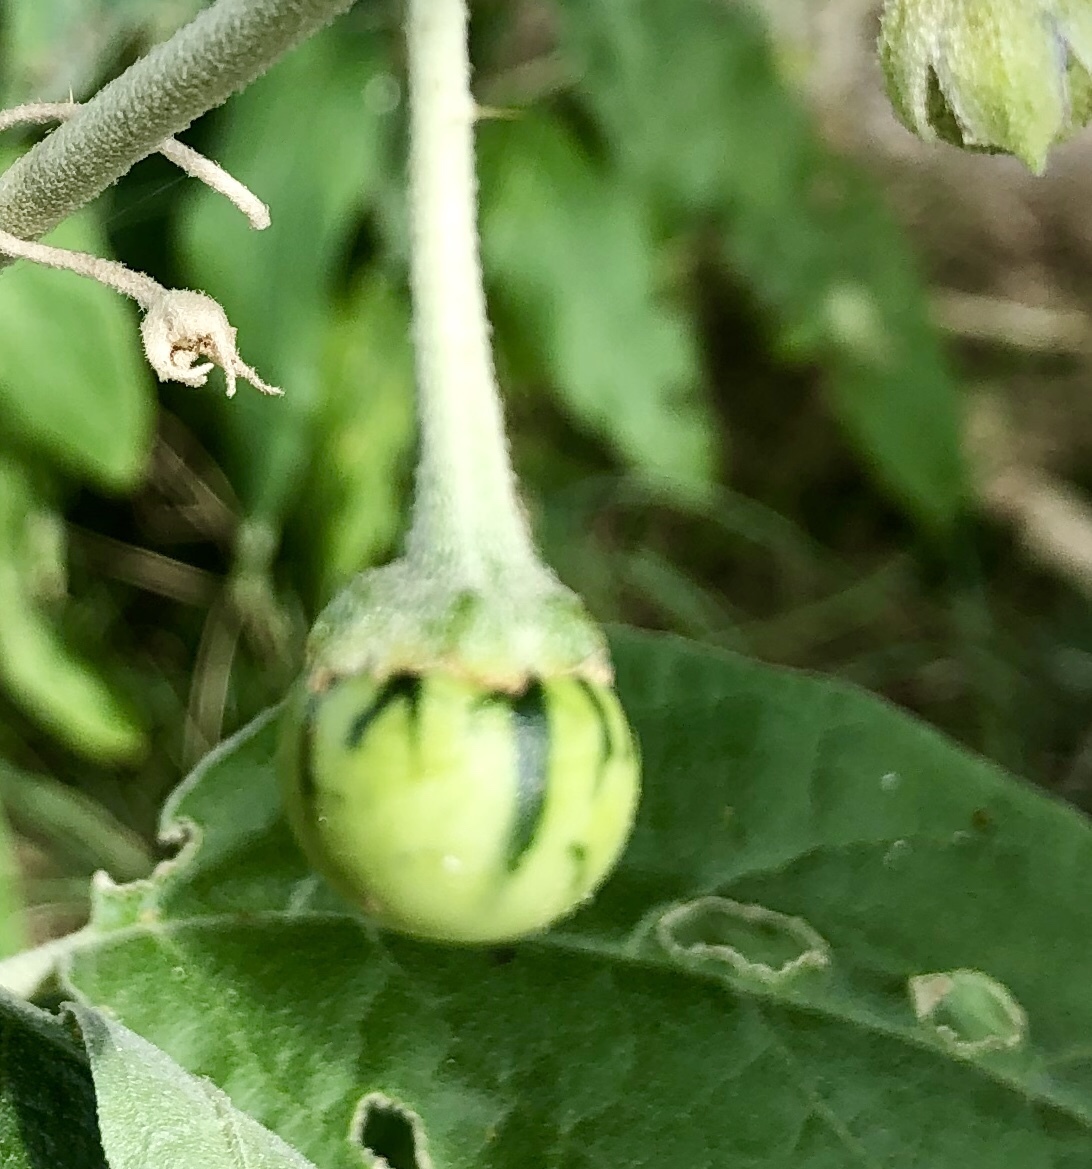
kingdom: Plantae
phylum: Tracheophyta
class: Magnoliopsida
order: Solanales
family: Solanaceae
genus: Solanum
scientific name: Solanum elaeagnifolium
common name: Silverleaf nightshade
